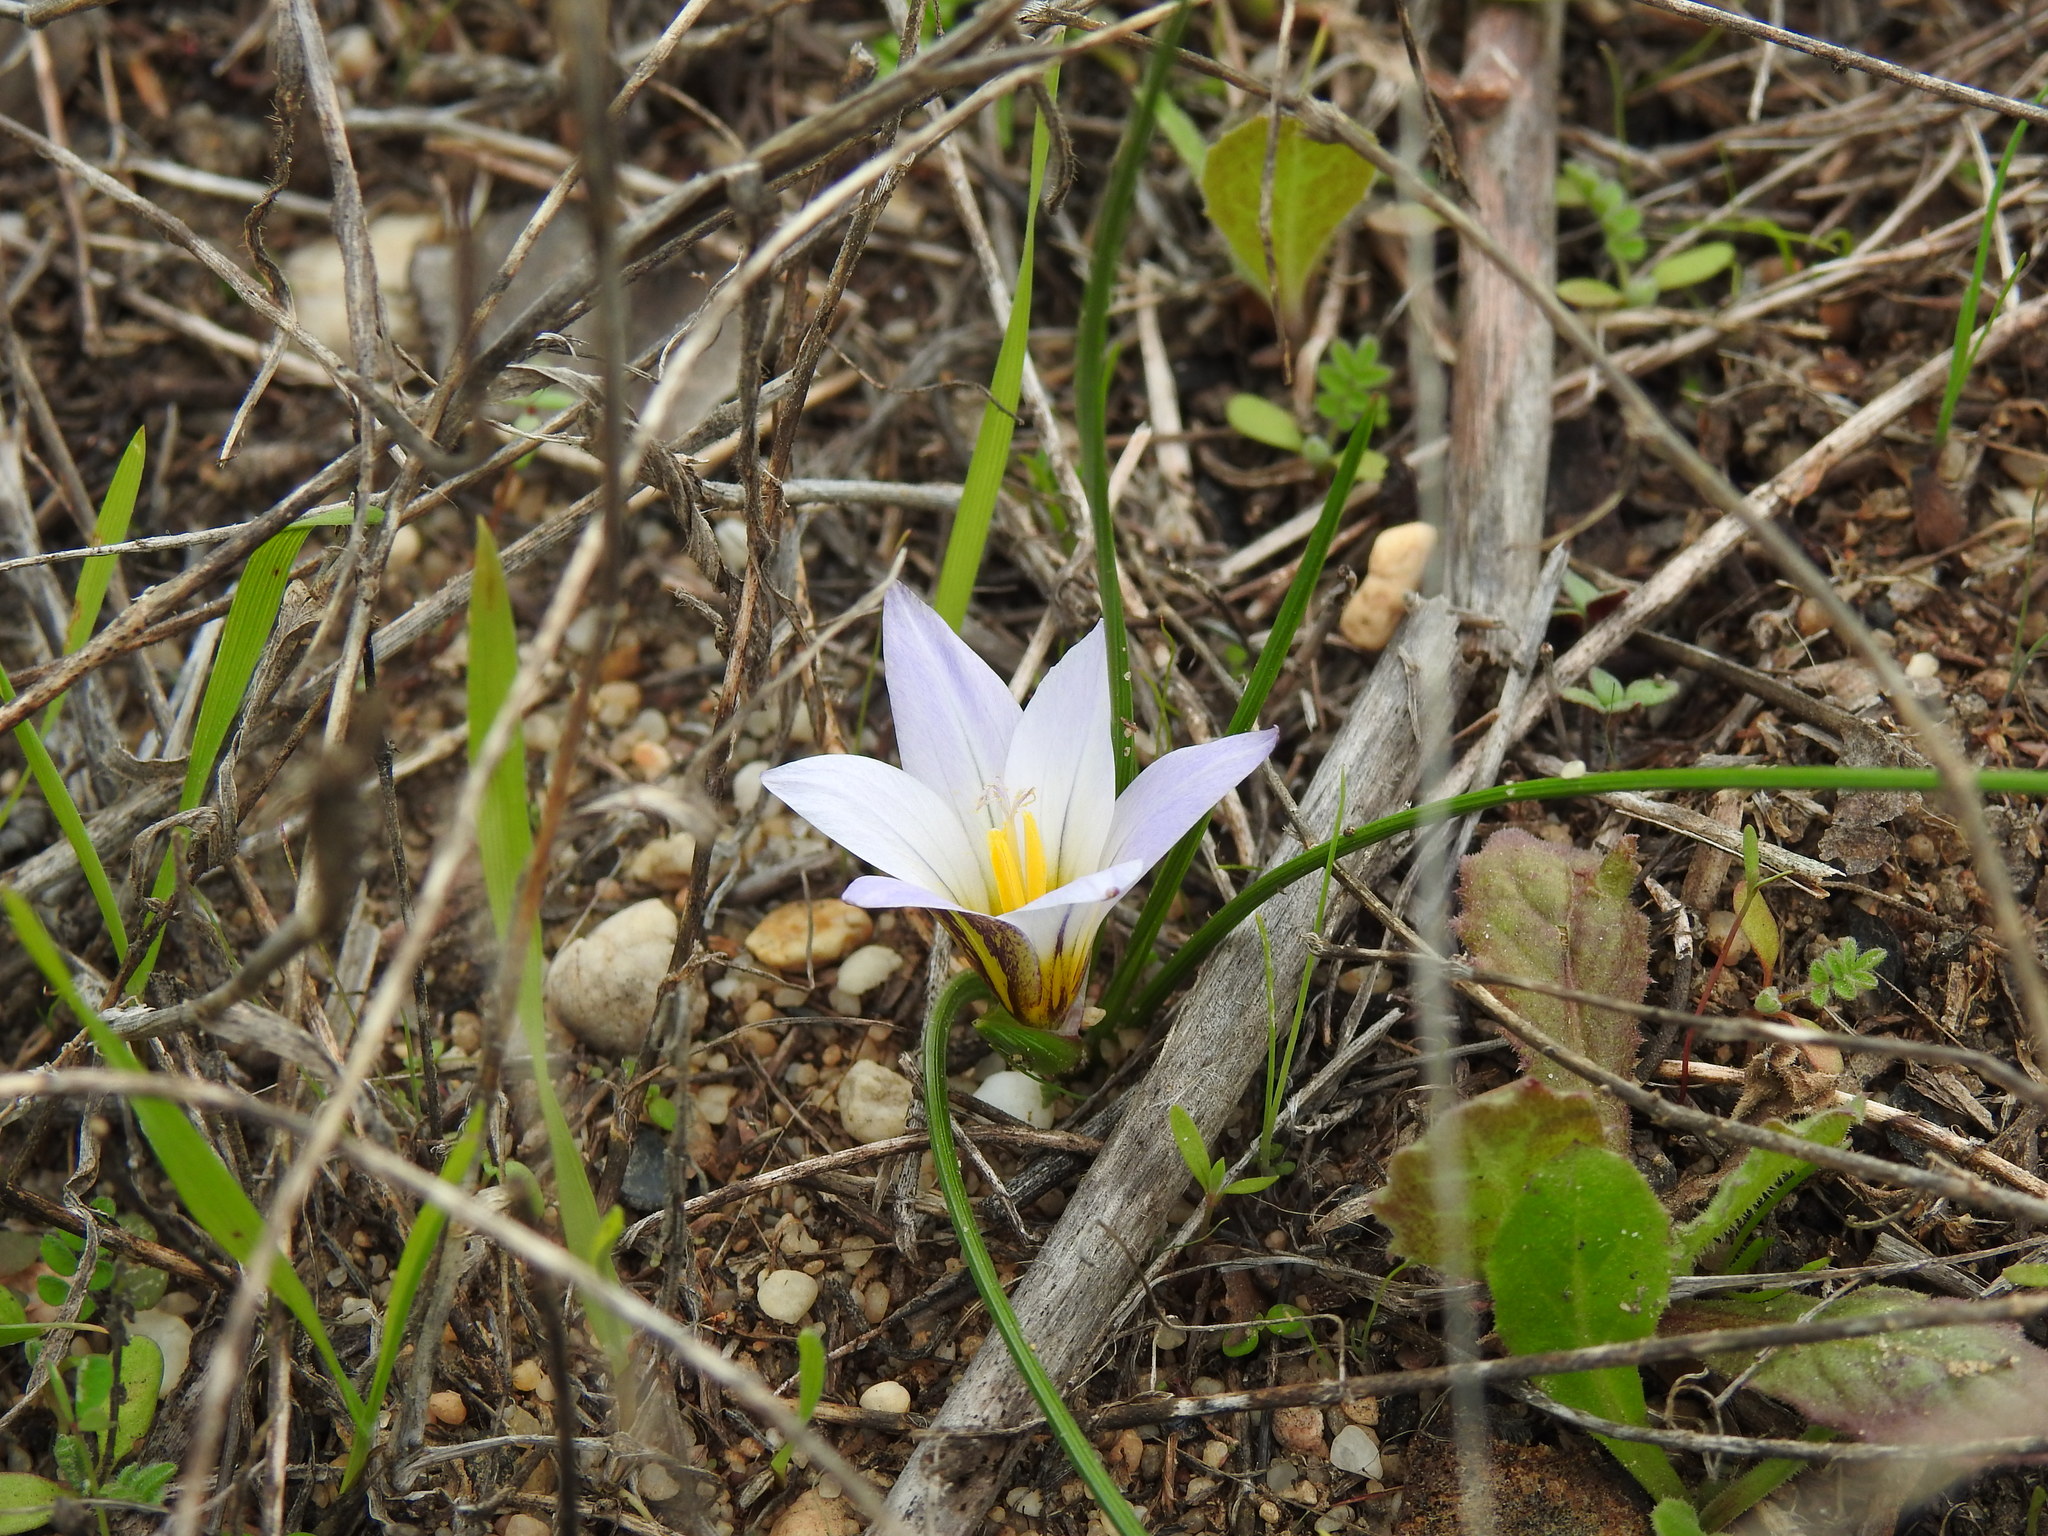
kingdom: Plantae
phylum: Tracheophyta
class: Liliopsida
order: Asparagales
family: Iridaceae
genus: Romulea
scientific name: Romulea bulbocodium
